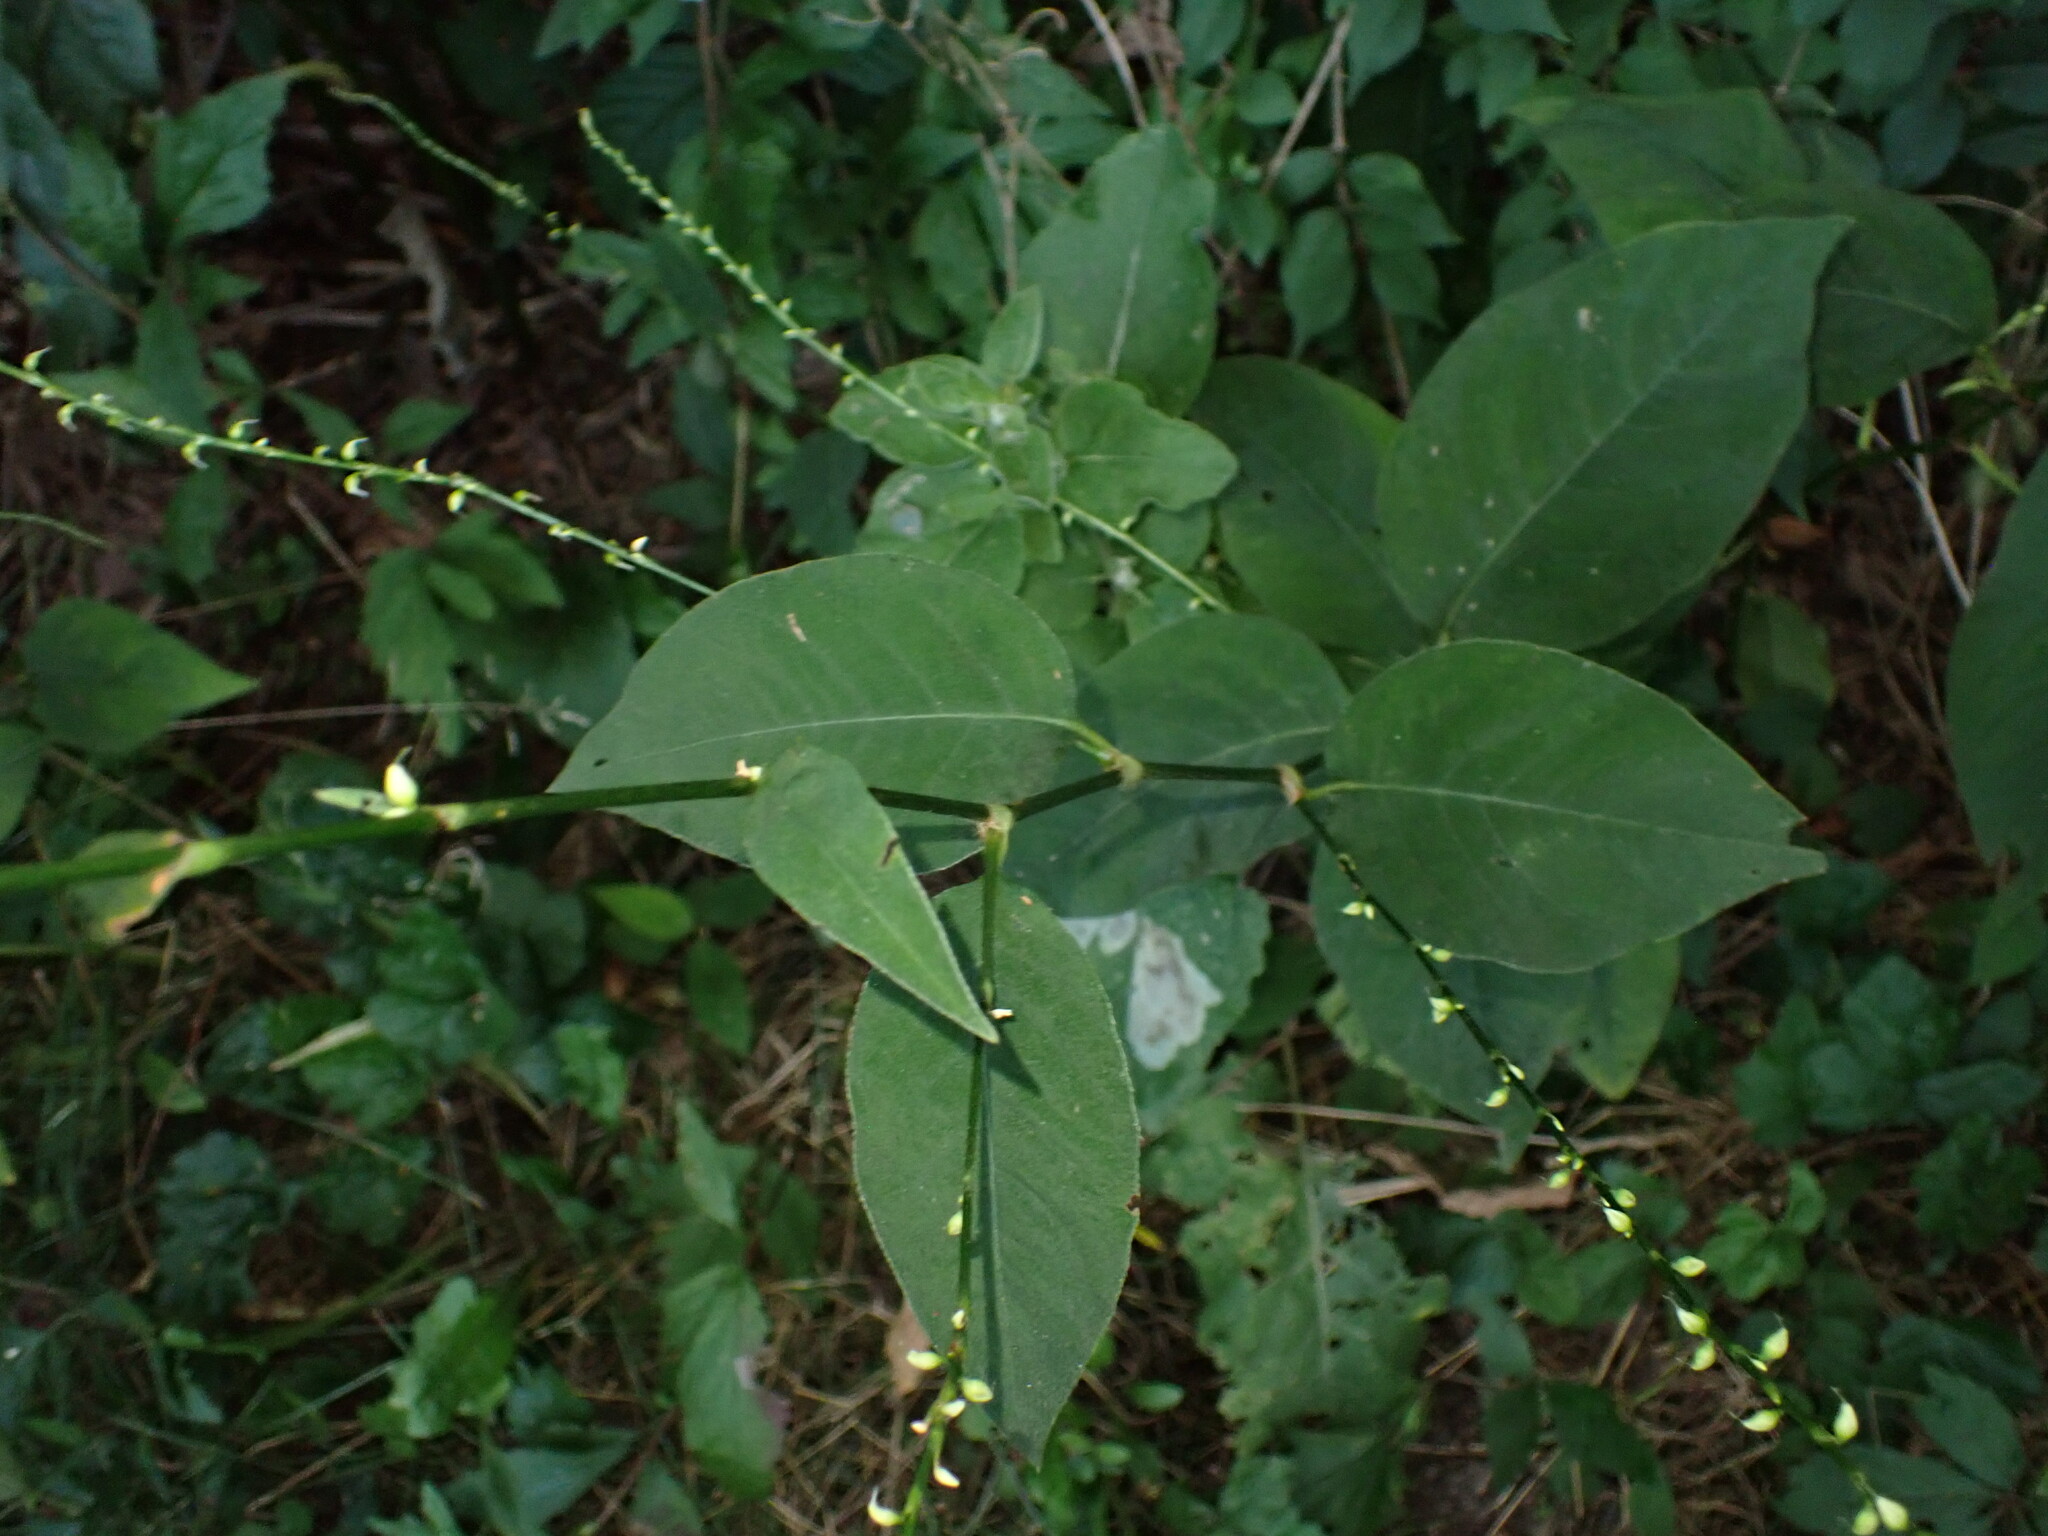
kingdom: Plantae
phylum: Tracheophyta
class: Magnoliopsida
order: Caryophyllales
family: Polygonaceae
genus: Persicaria
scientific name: Persicaria virginiana
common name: Jumpseed
